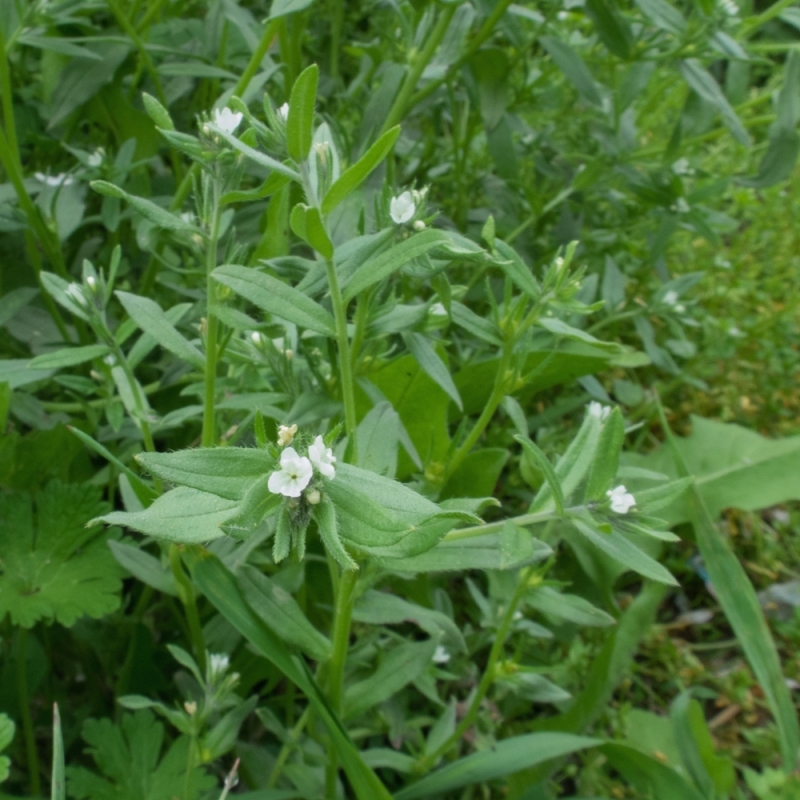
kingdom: Plantae
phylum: Tracheophyta
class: Magnoliopsida
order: Boraginales
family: Boraginaceae
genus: Buglossoides
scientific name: Buglossoides arvensis
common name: Corn gromwell
